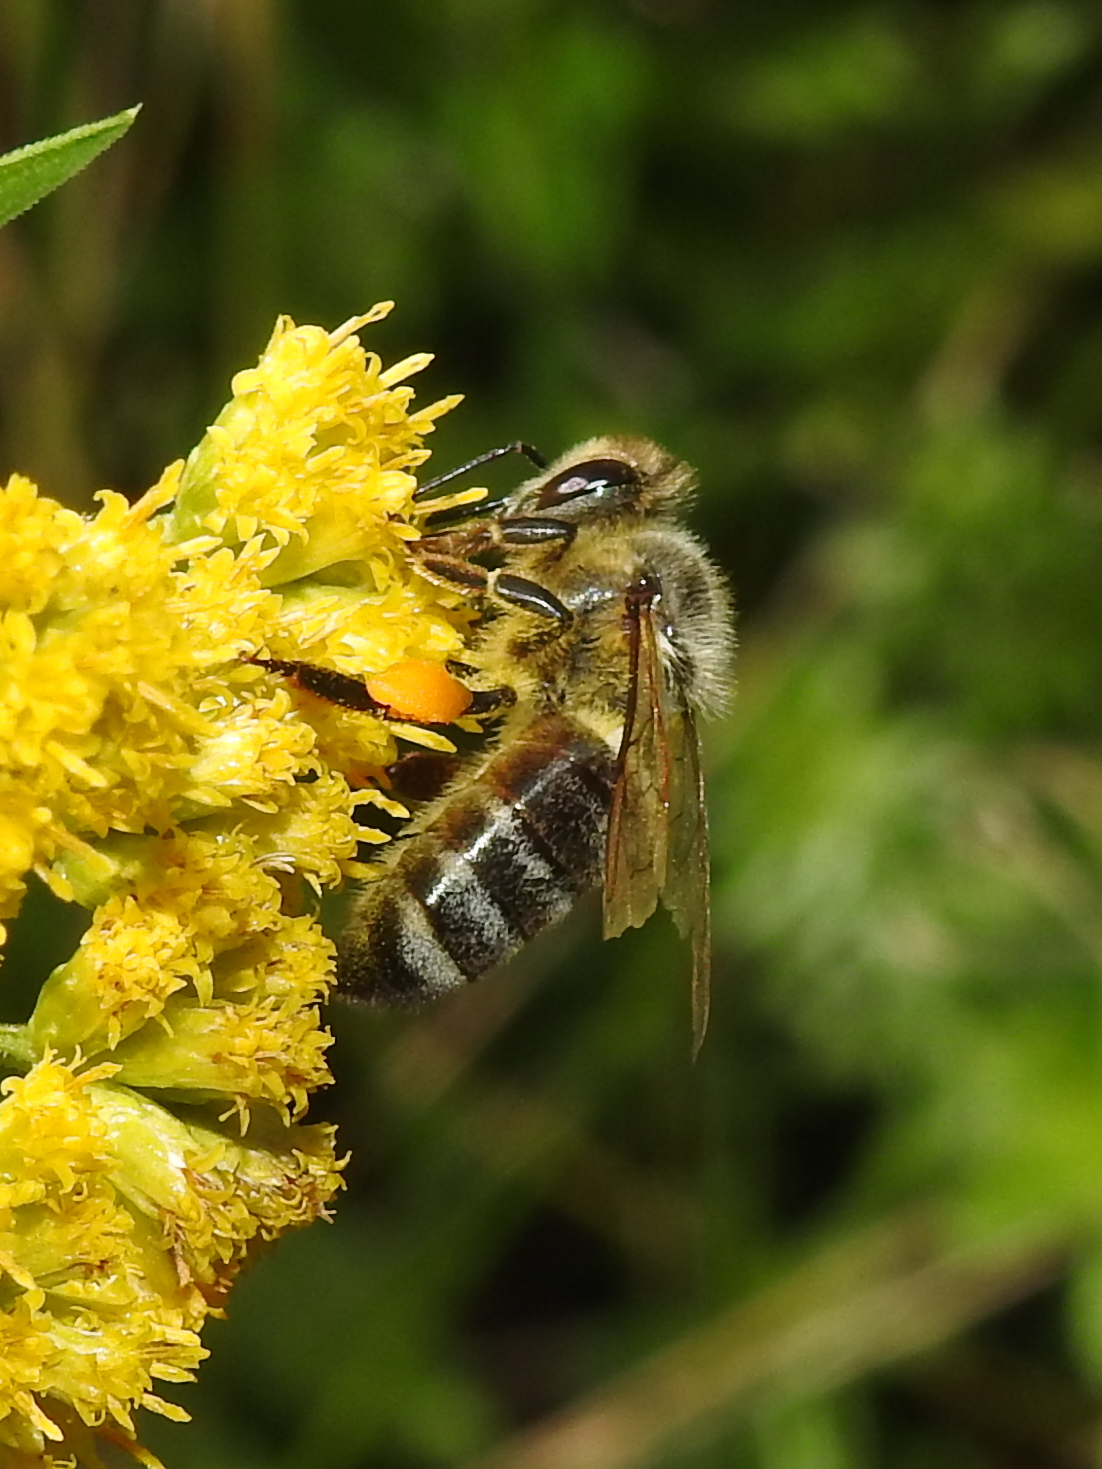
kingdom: Animalia
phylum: Arthropoda
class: Insecta
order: Hymenoptera
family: Apidae
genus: Apis
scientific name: Apis mellifera
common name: Honey bee
